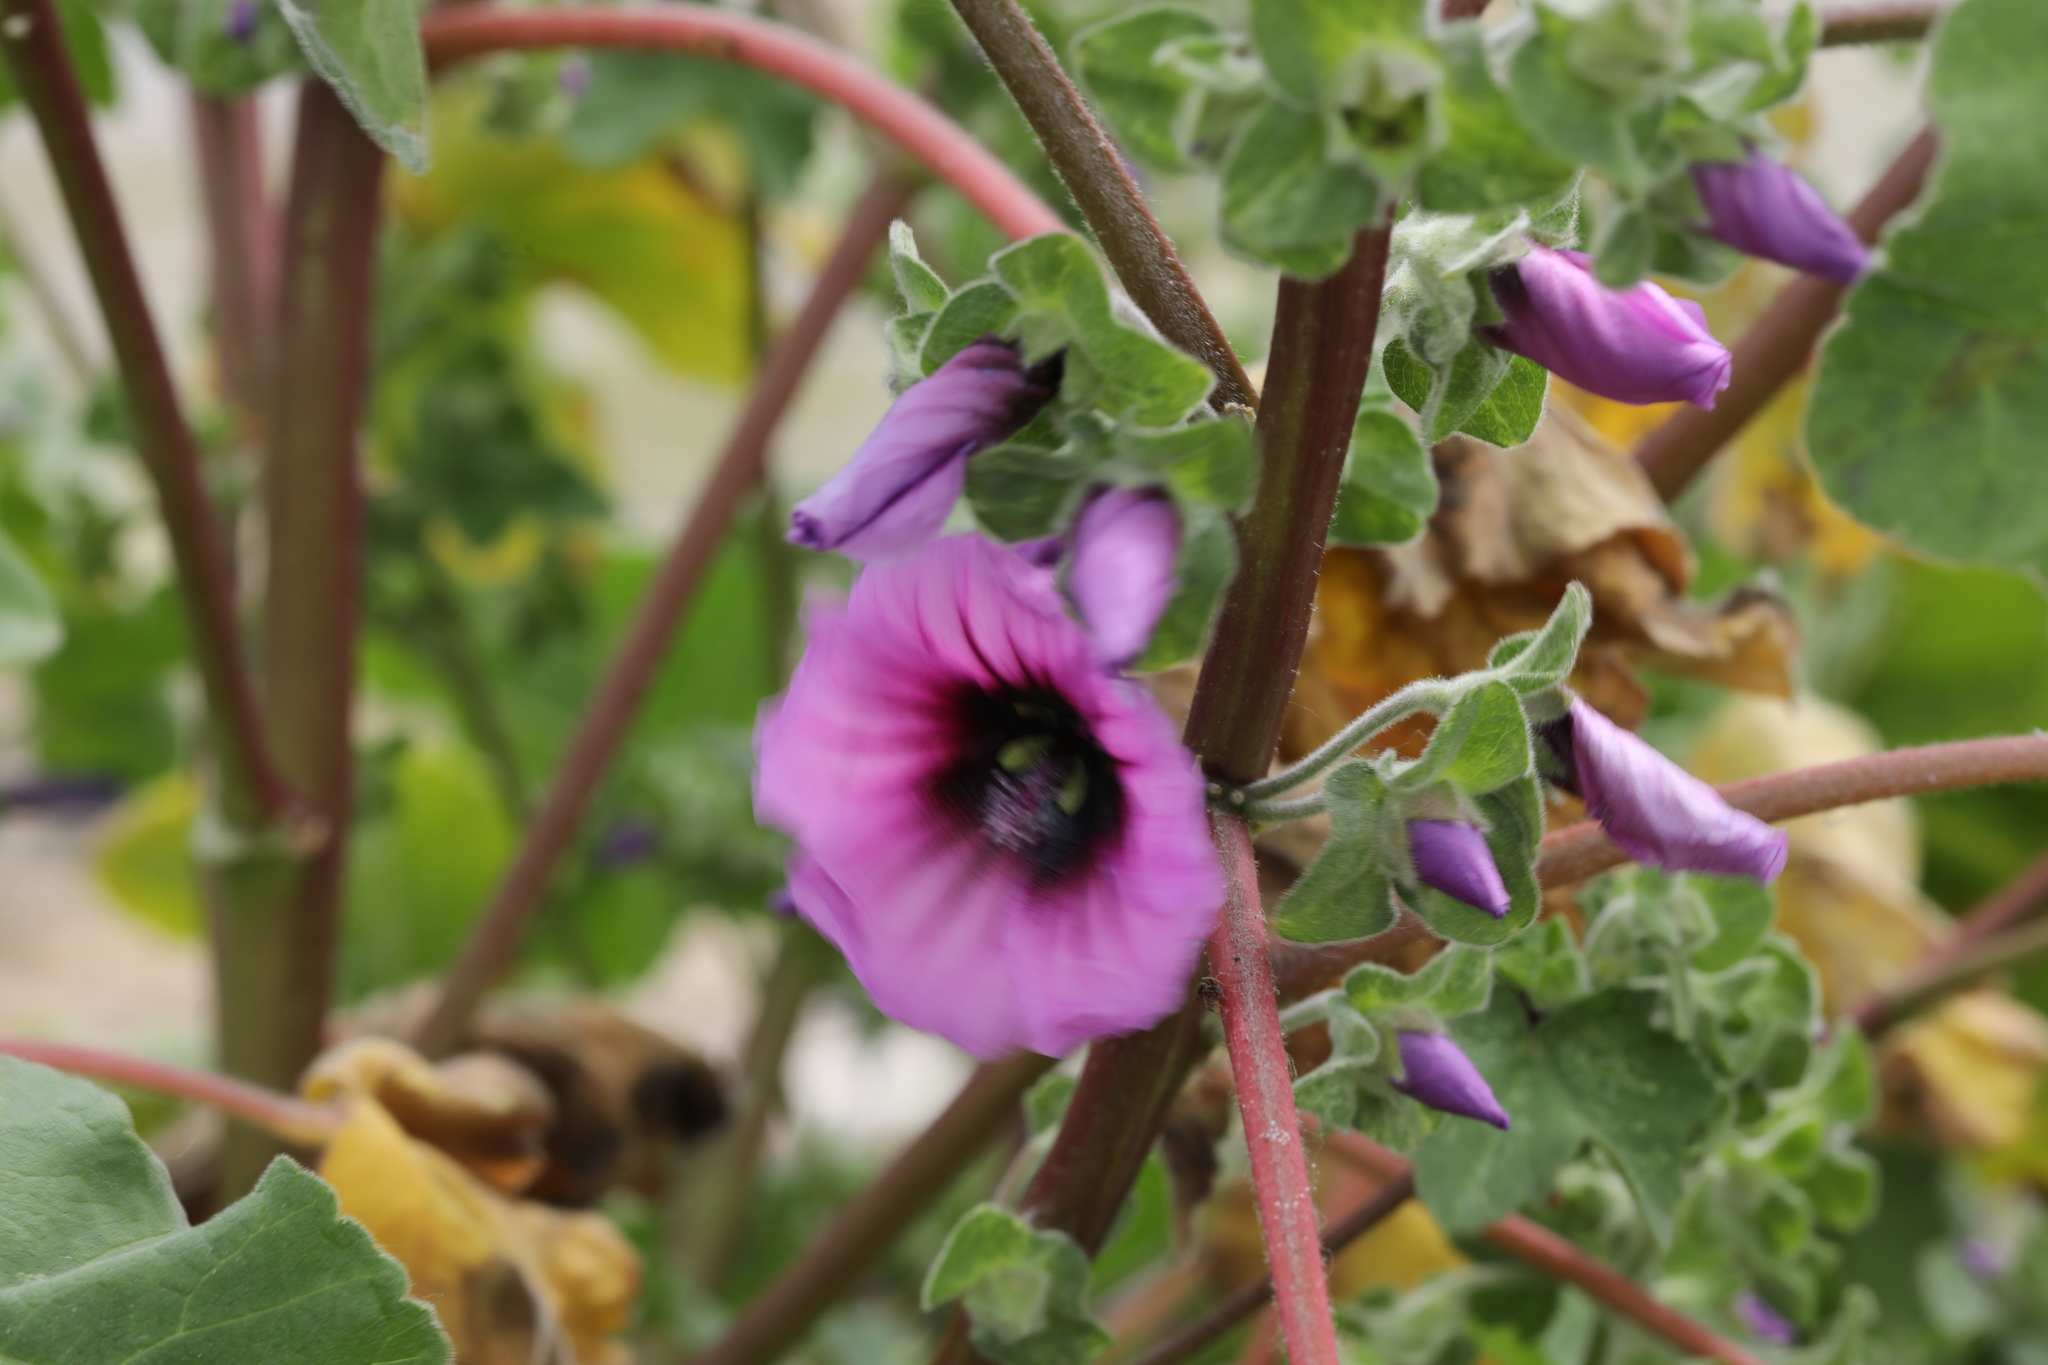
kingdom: Plantae
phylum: Tracheophyta
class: Magnoliopsida
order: Malvales
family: Malvaceae
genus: Malva
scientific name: Malva arborea
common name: Tree mallow
